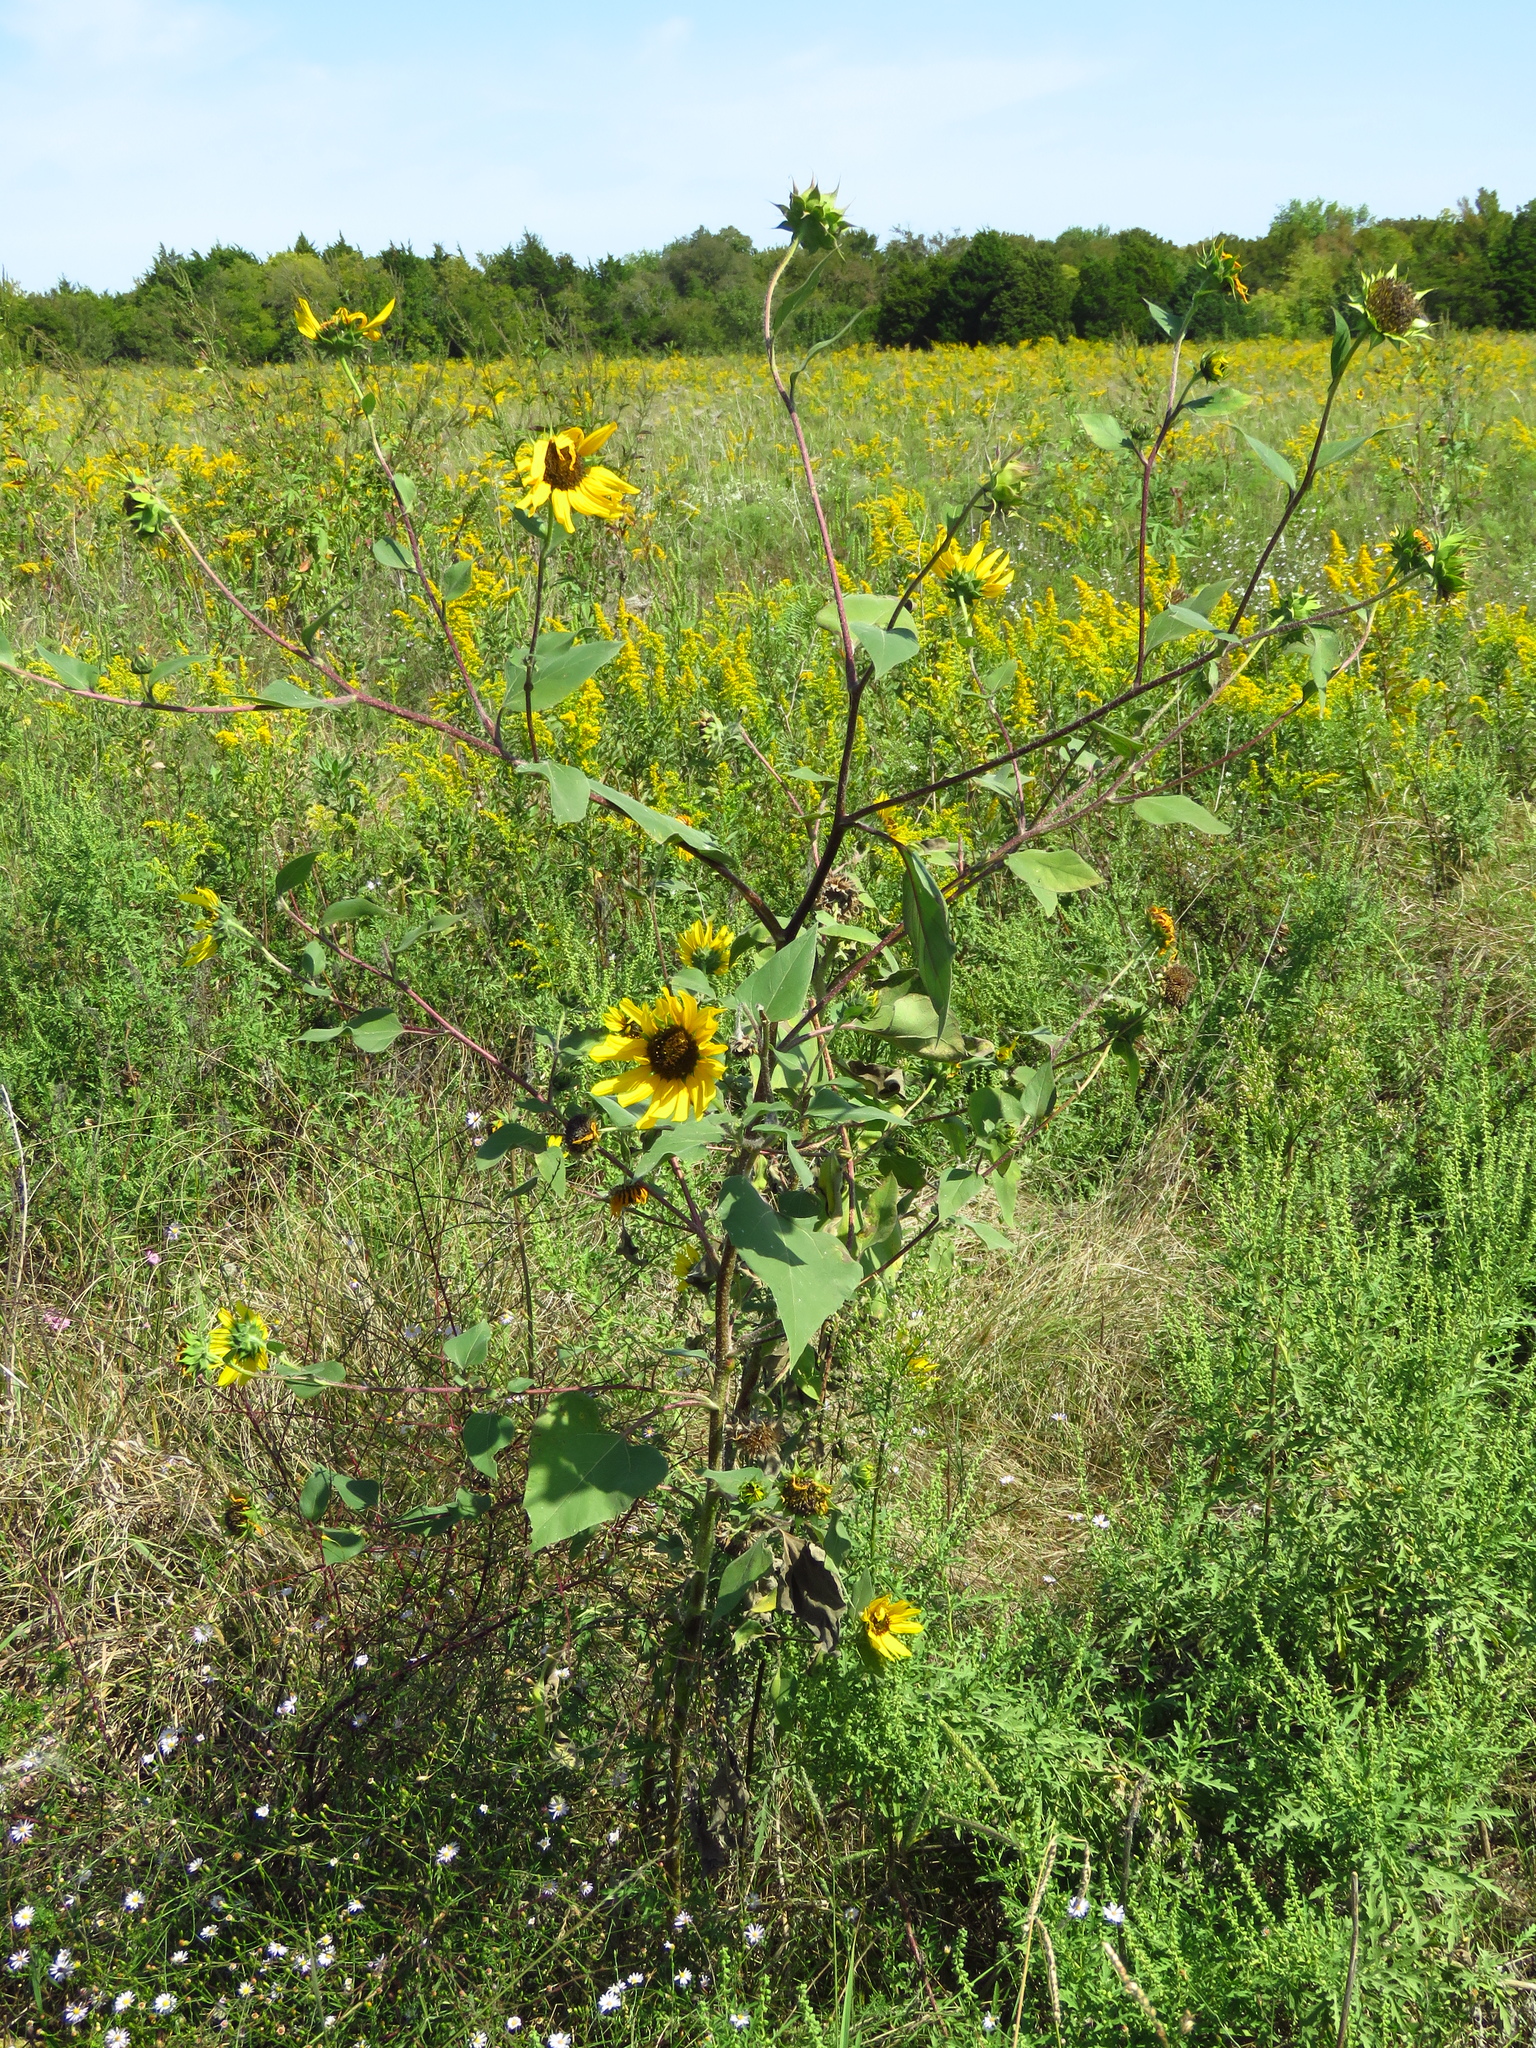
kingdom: Plantae
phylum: Tracheophyta
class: Magnoliopsida
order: Asterales
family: Asteraceae
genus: Helianthus
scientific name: Helianthus annuus
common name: Sunflower
